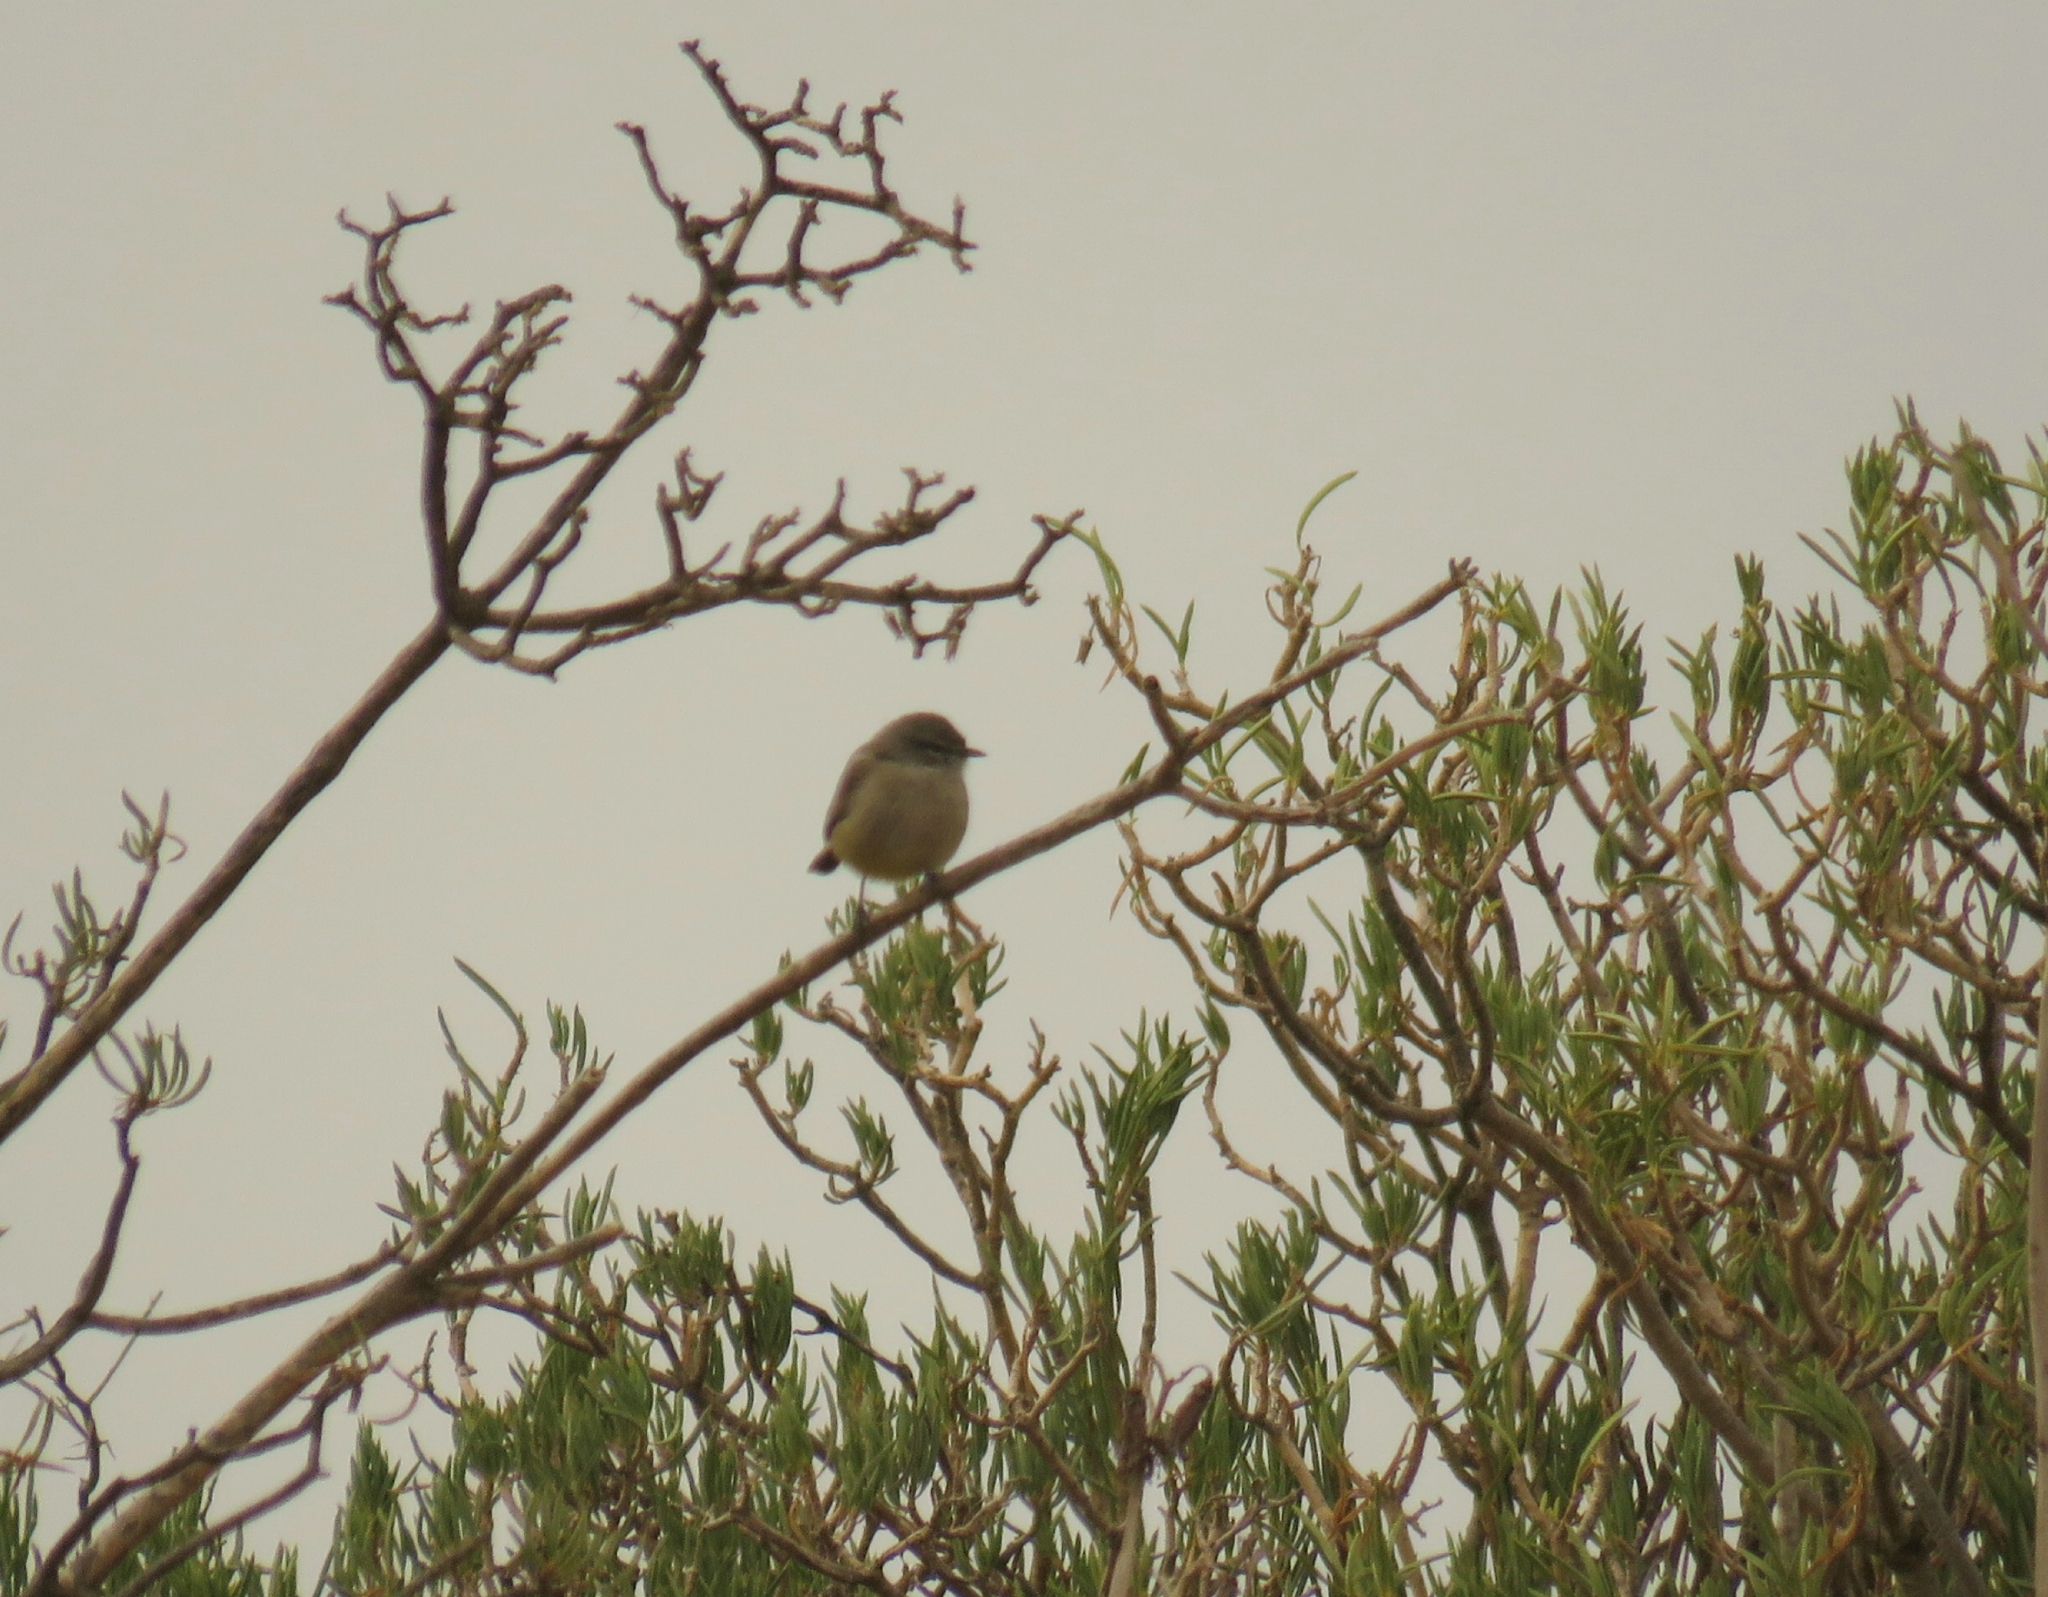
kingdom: Animalia
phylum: Chordata
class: Aves
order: Passeriformes
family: Cisticolidae
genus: Eremomela
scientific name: Eremomela icteropygialis
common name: Yellow-bellied eremomela
